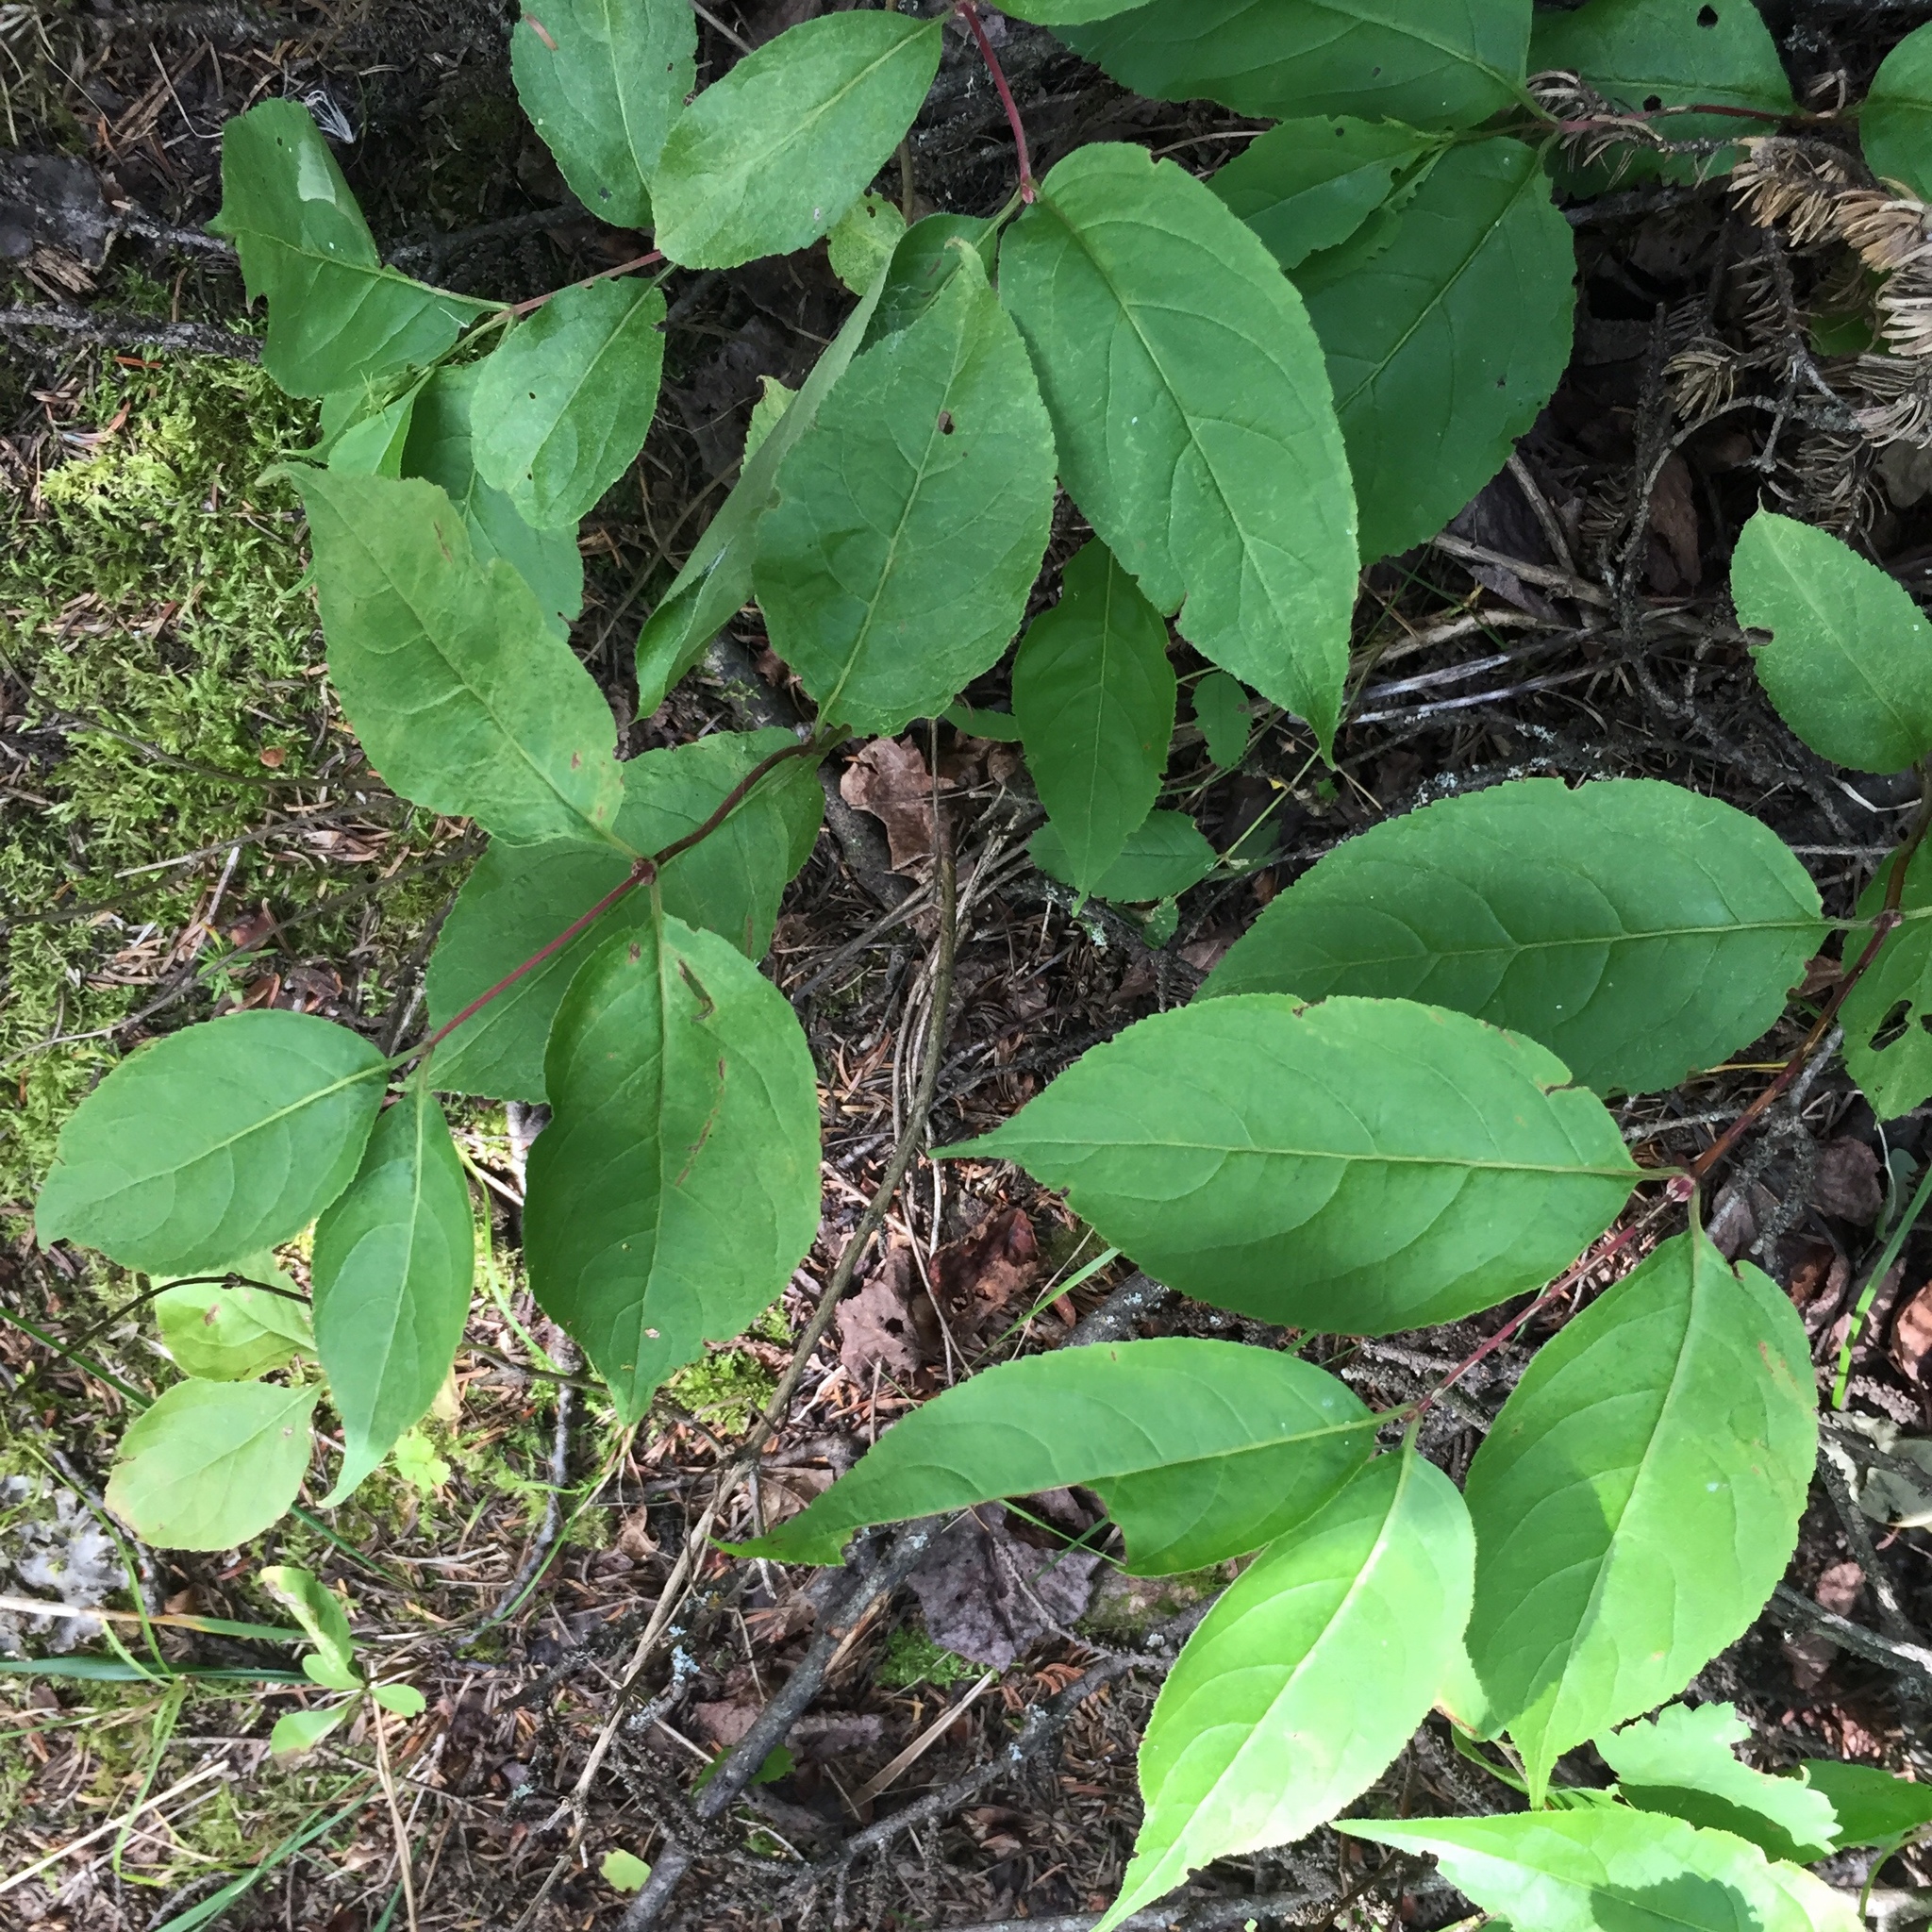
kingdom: Plantae
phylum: Tracheophyta
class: Magnoliopsida
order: Dipsacales
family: Caprifoliaceae
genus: Diervilla
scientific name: Diervilla lonicera
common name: Bush-honeysuckle
